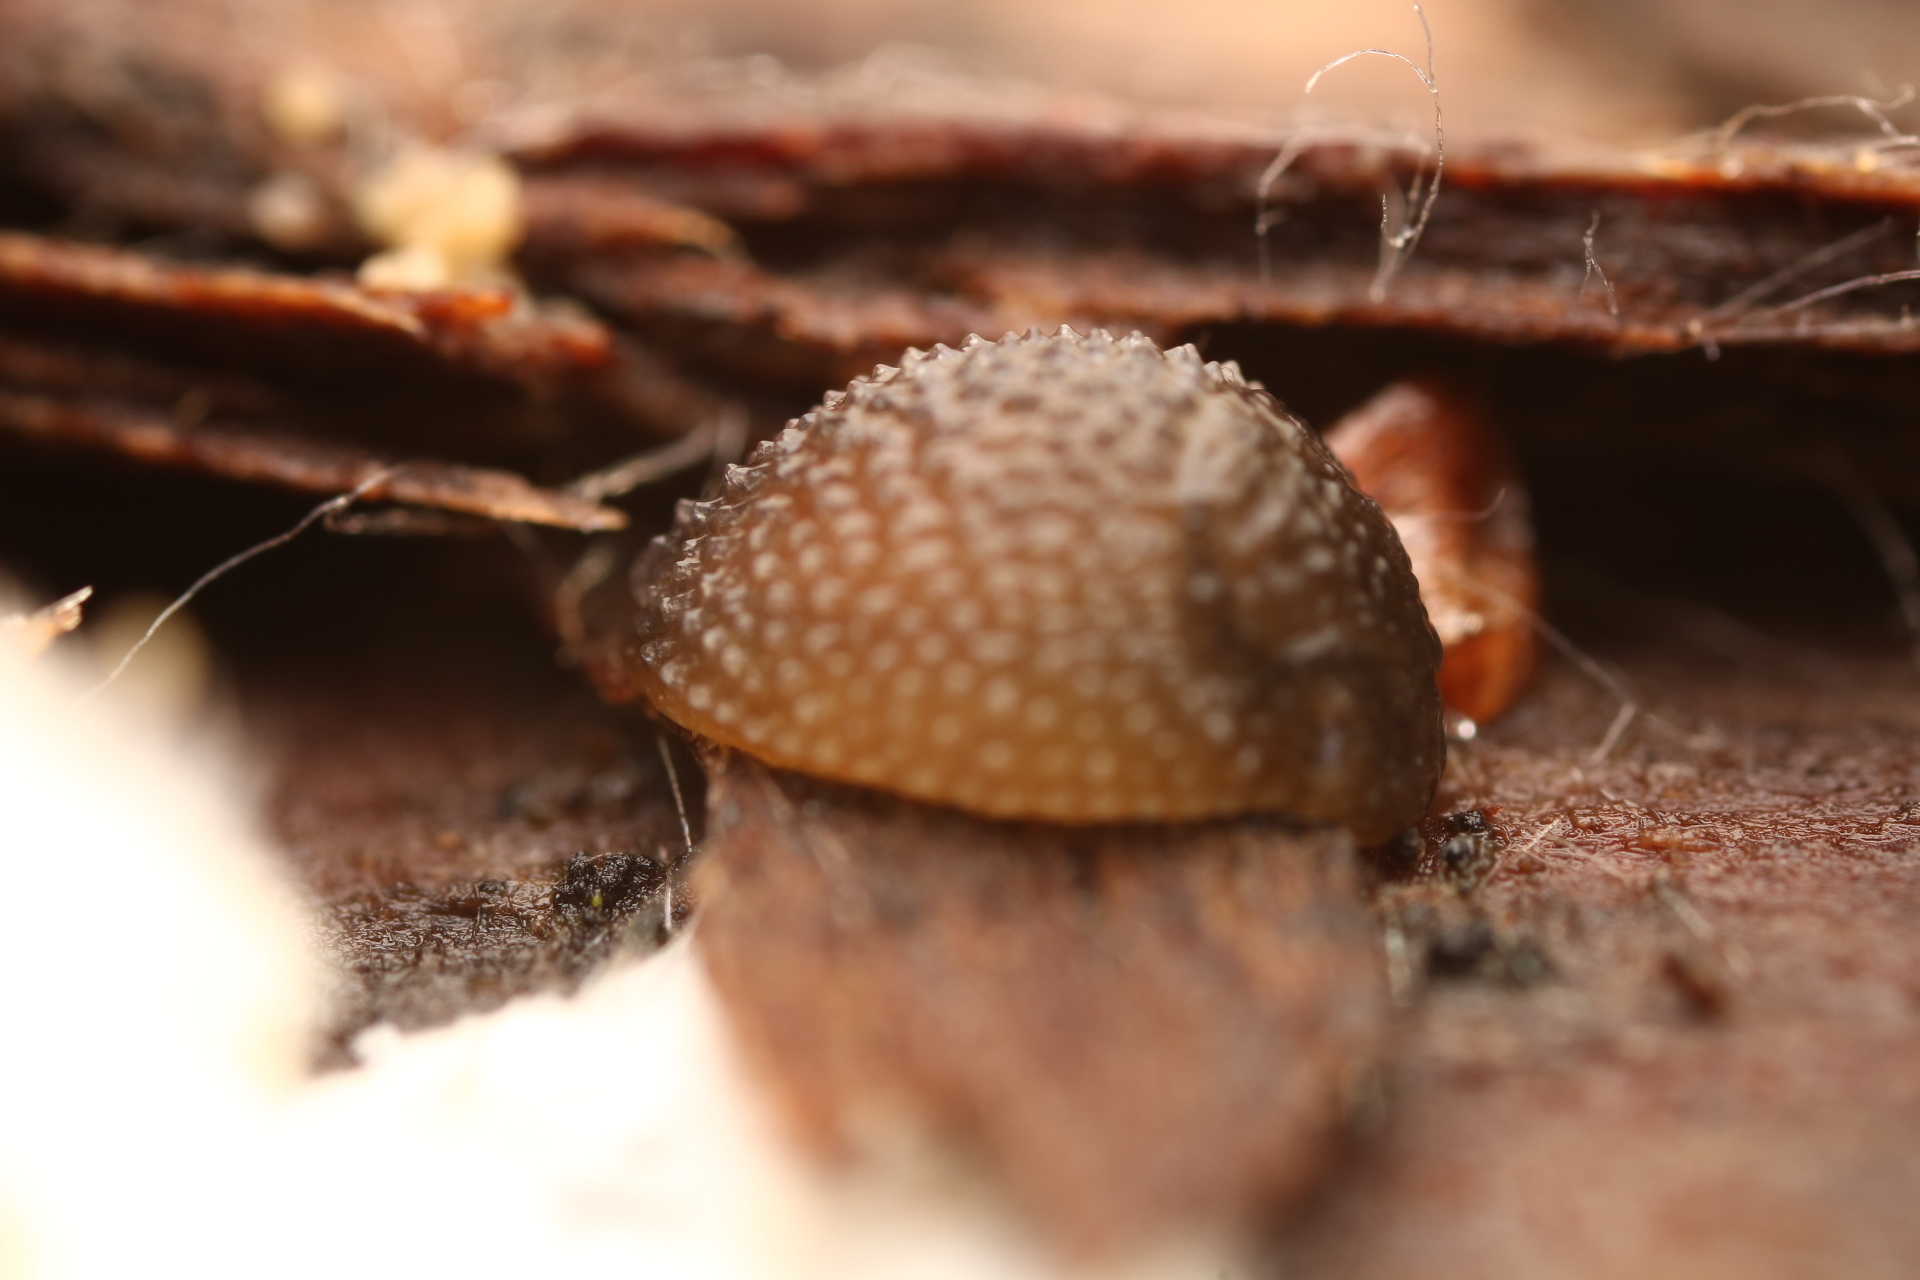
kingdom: Animalia
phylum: Mollusca
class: Gastropoda
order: Stylommatophora
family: Arionidae
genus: Arion
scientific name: Arion intermedius
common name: Hedgehog slug
